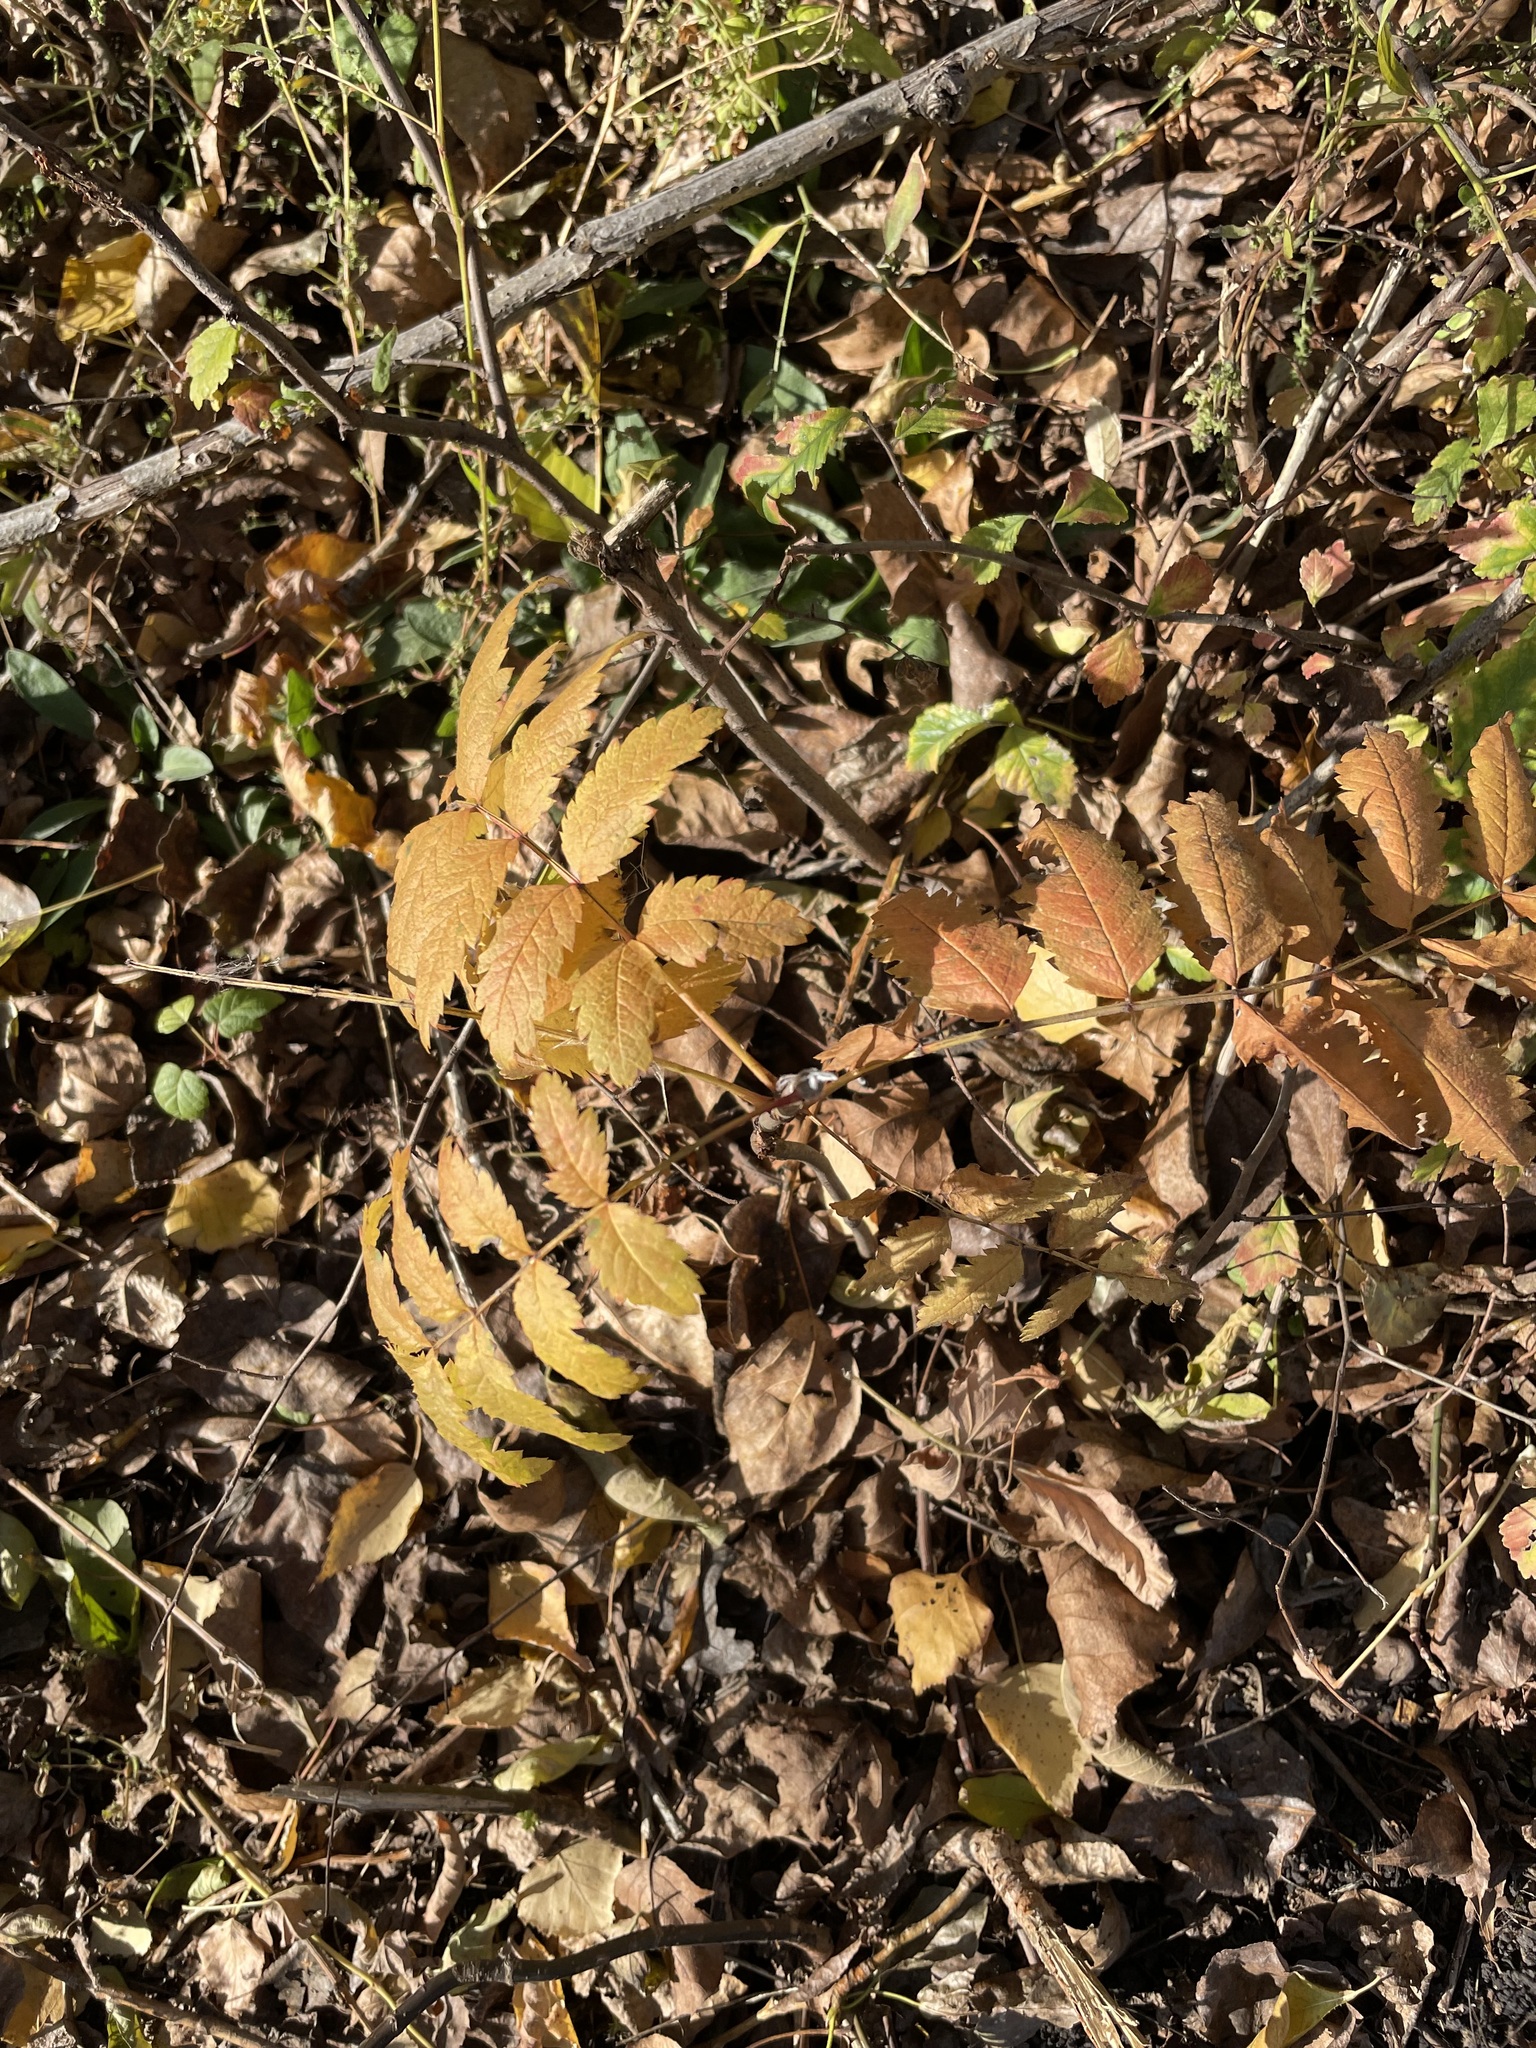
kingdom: Plantae
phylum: Tracheophyta
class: Magnoliopsida
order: Rosales
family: Rosaceae
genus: Sorbus
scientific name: Sorbus aucuparia
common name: Rowan
